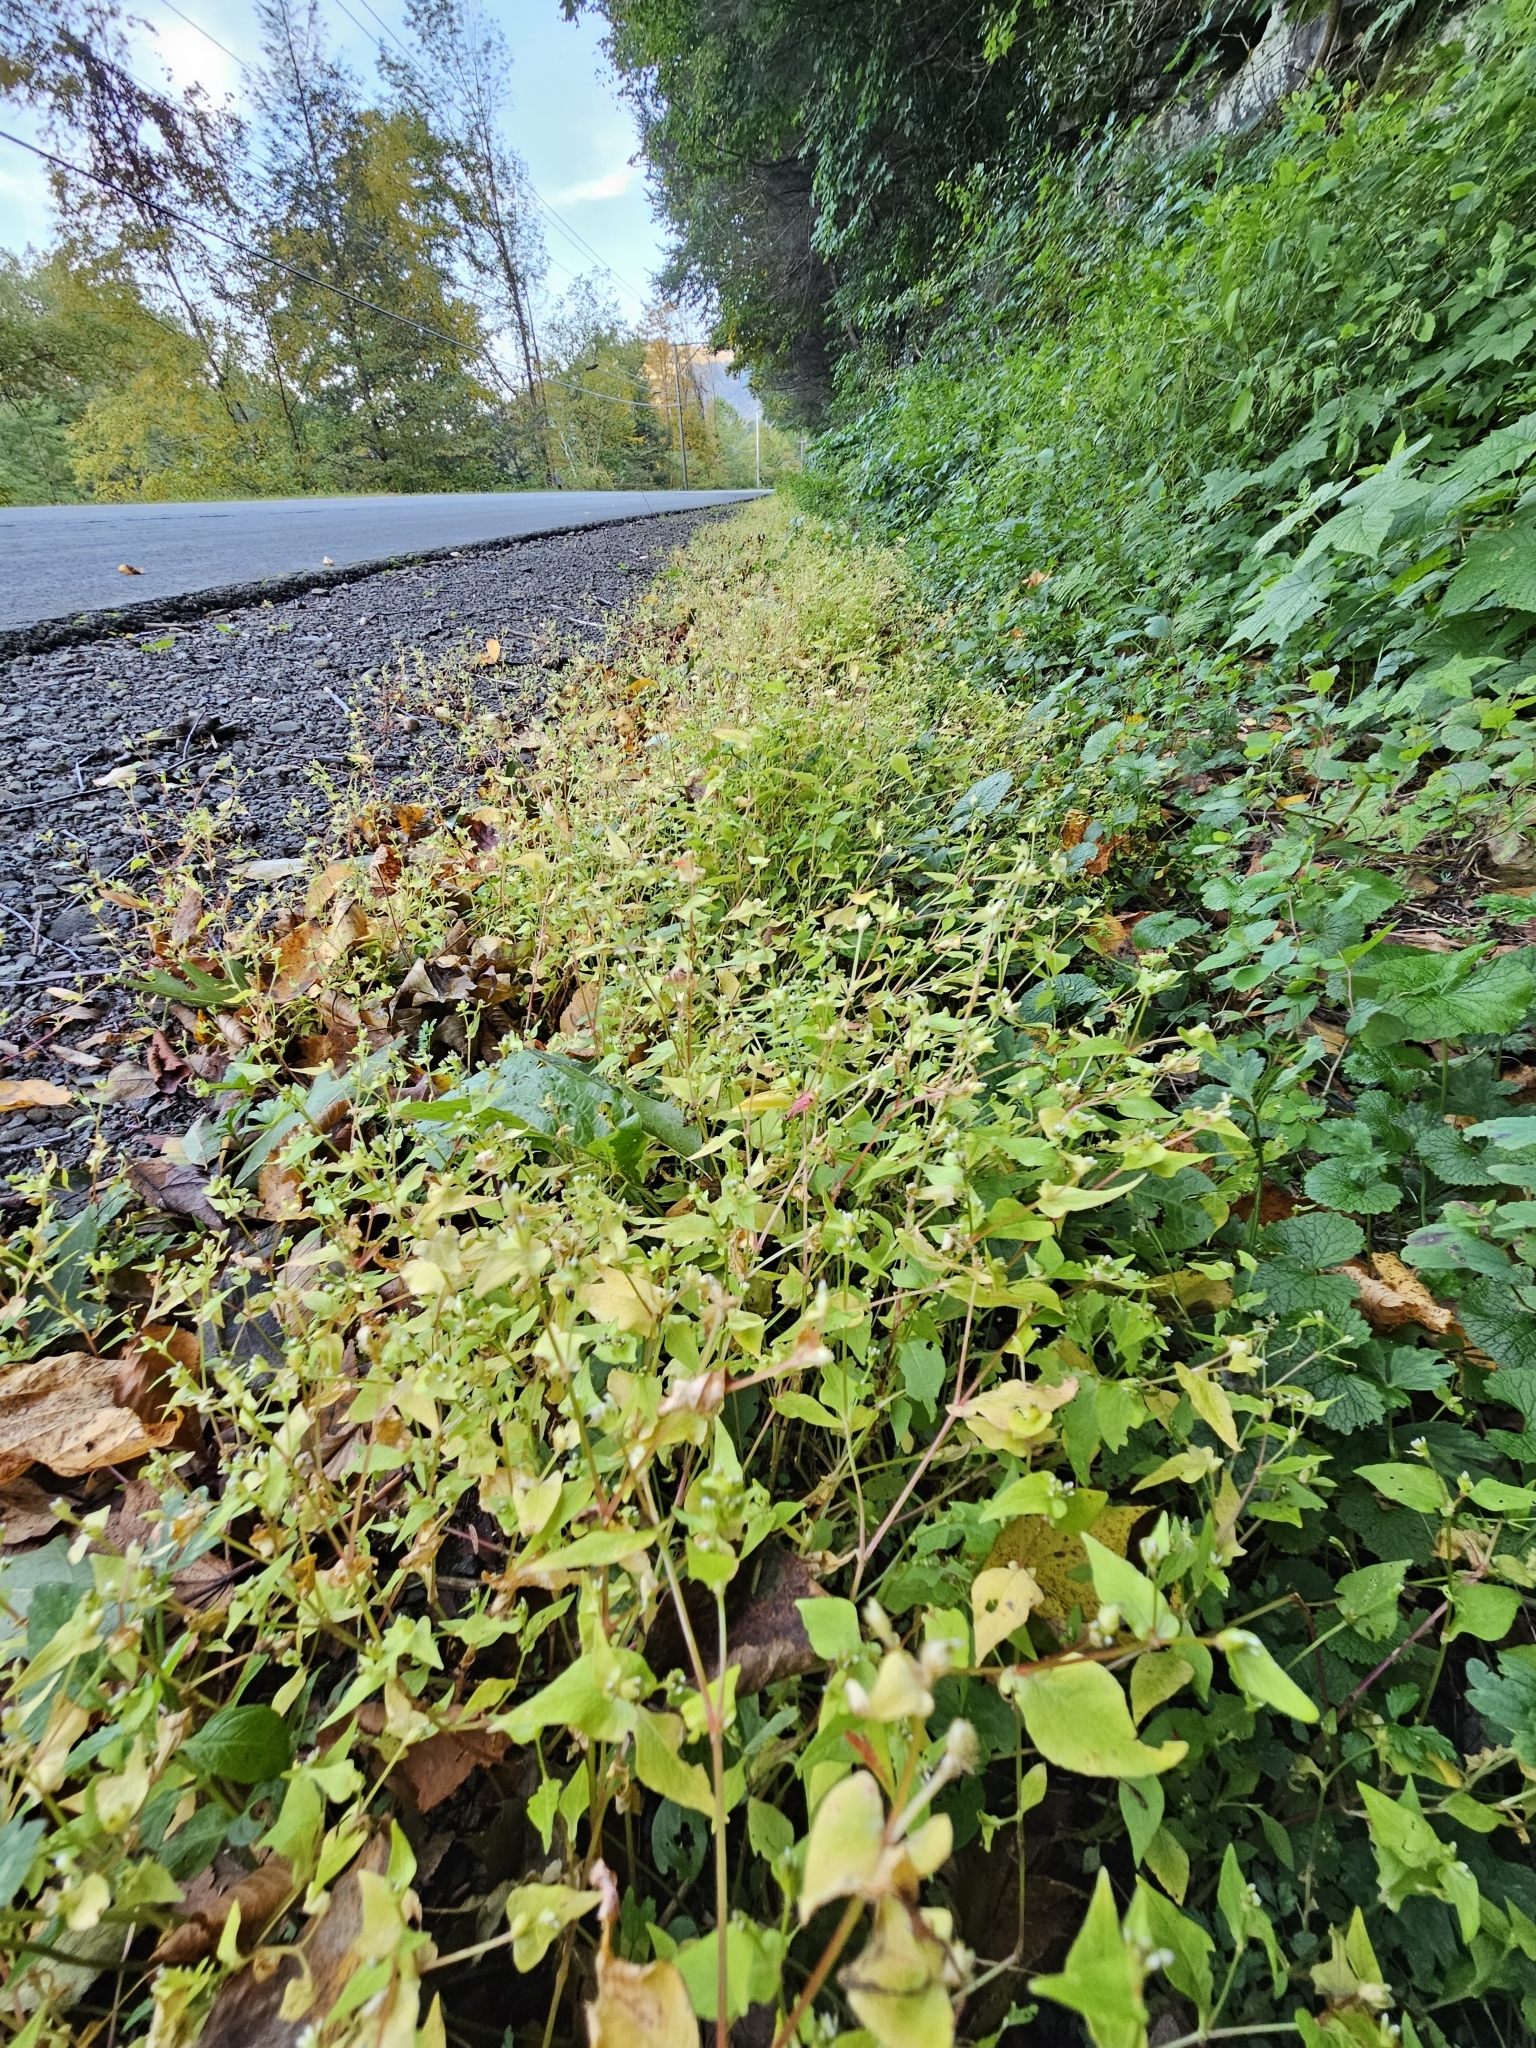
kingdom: Plantae
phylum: Tracheophyta
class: Magnoliopsida
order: Caryophyllales
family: Polygonaceae
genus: Persicaria
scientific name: Persicaria nepalensis
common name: Nepal persicaria
